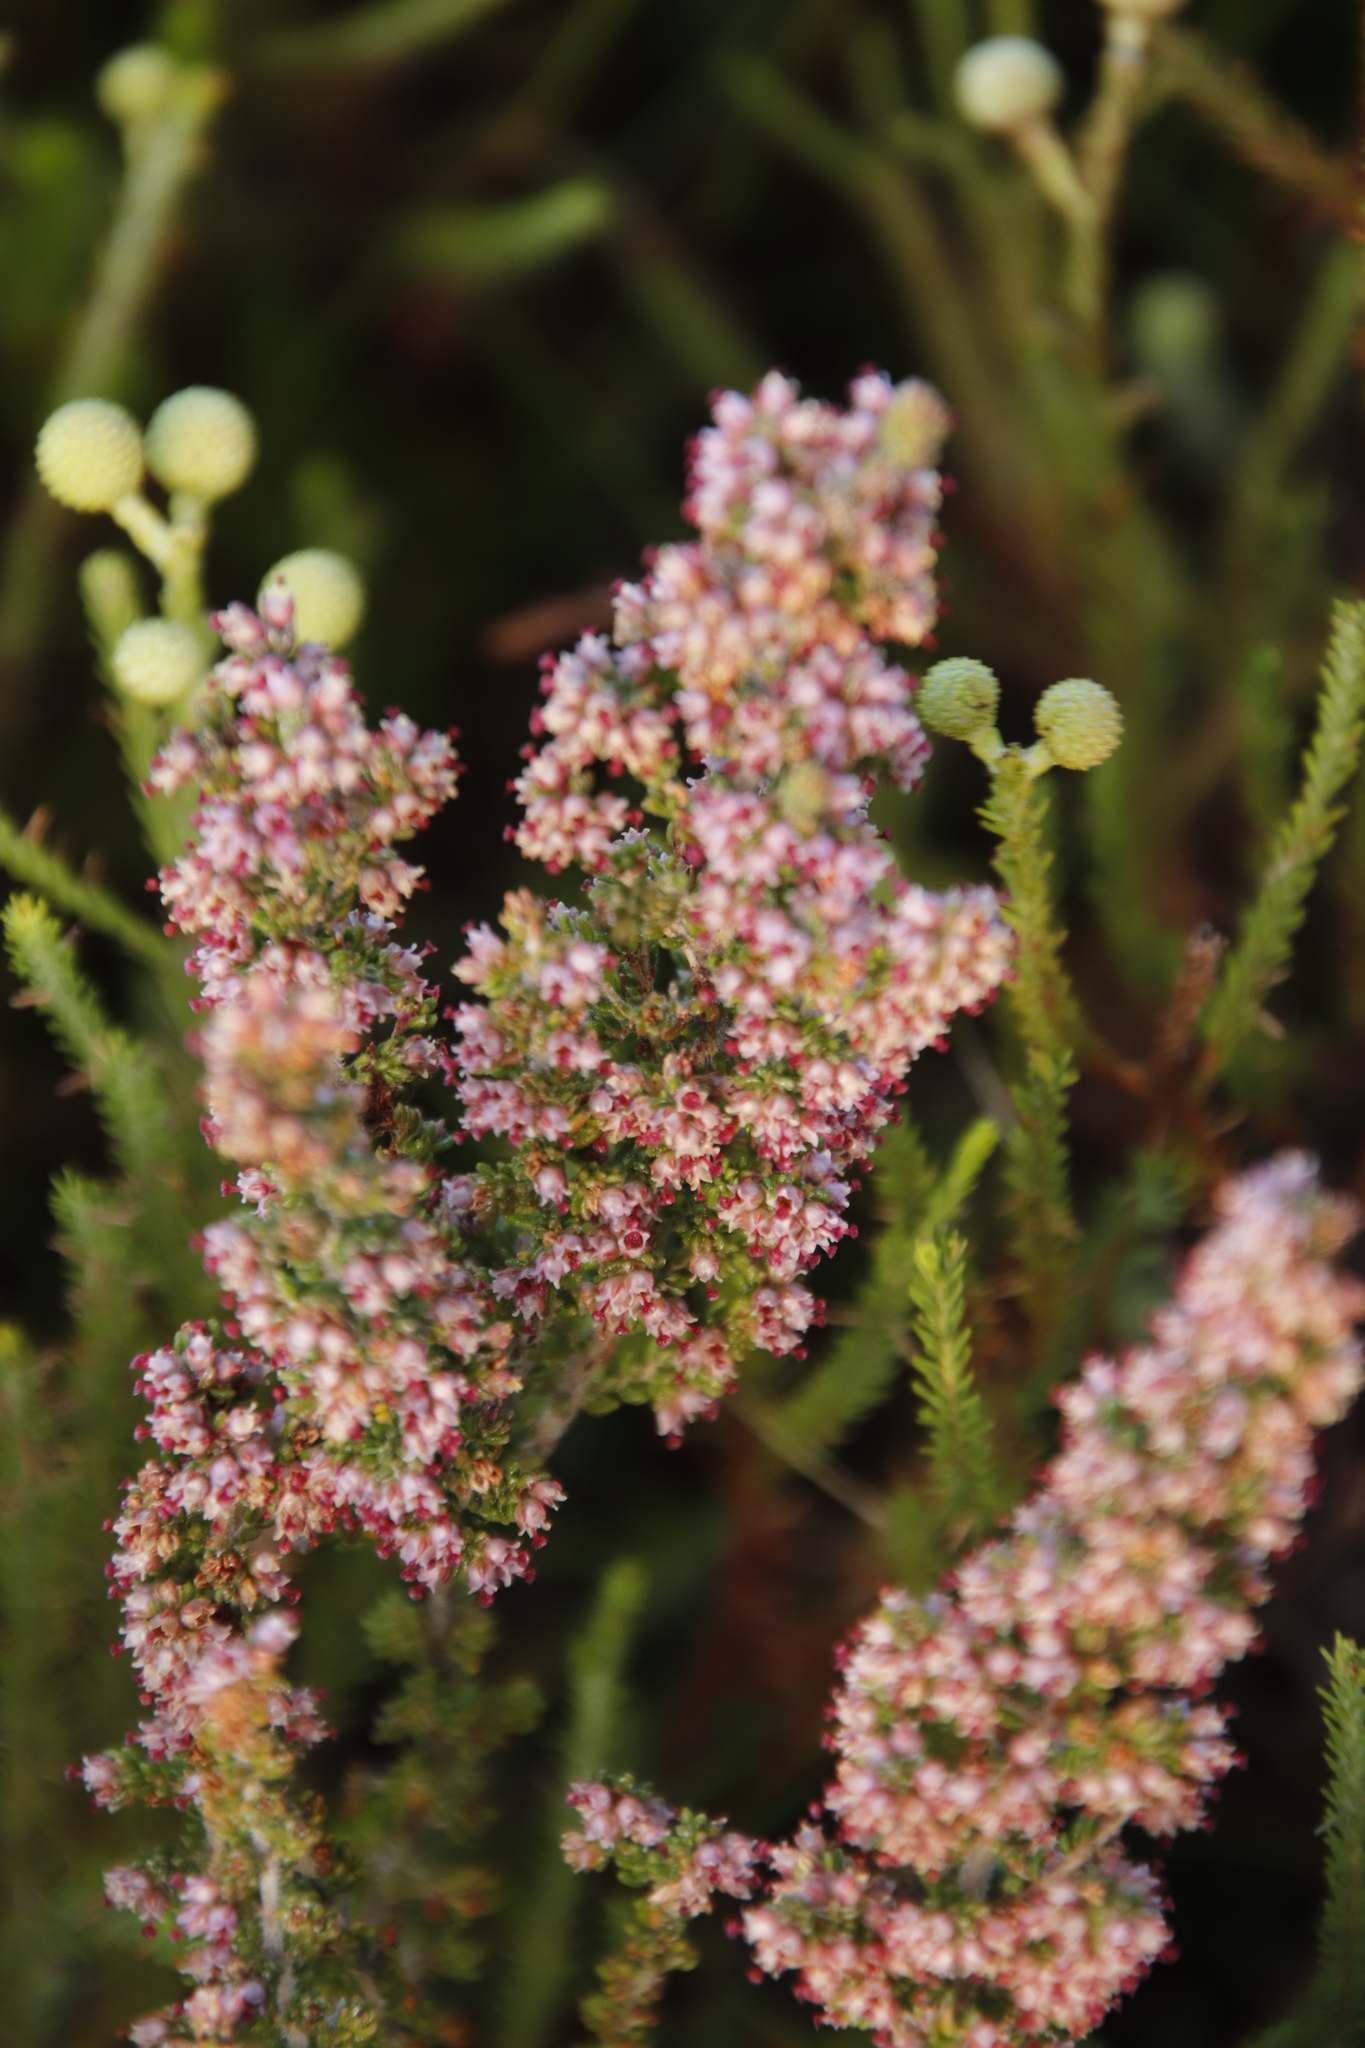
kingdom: Plantae
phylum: Tracheophyta
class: Magnoliopsida
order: Ericales
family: Ericaceae
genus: Erica
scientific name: Erica hispidula
